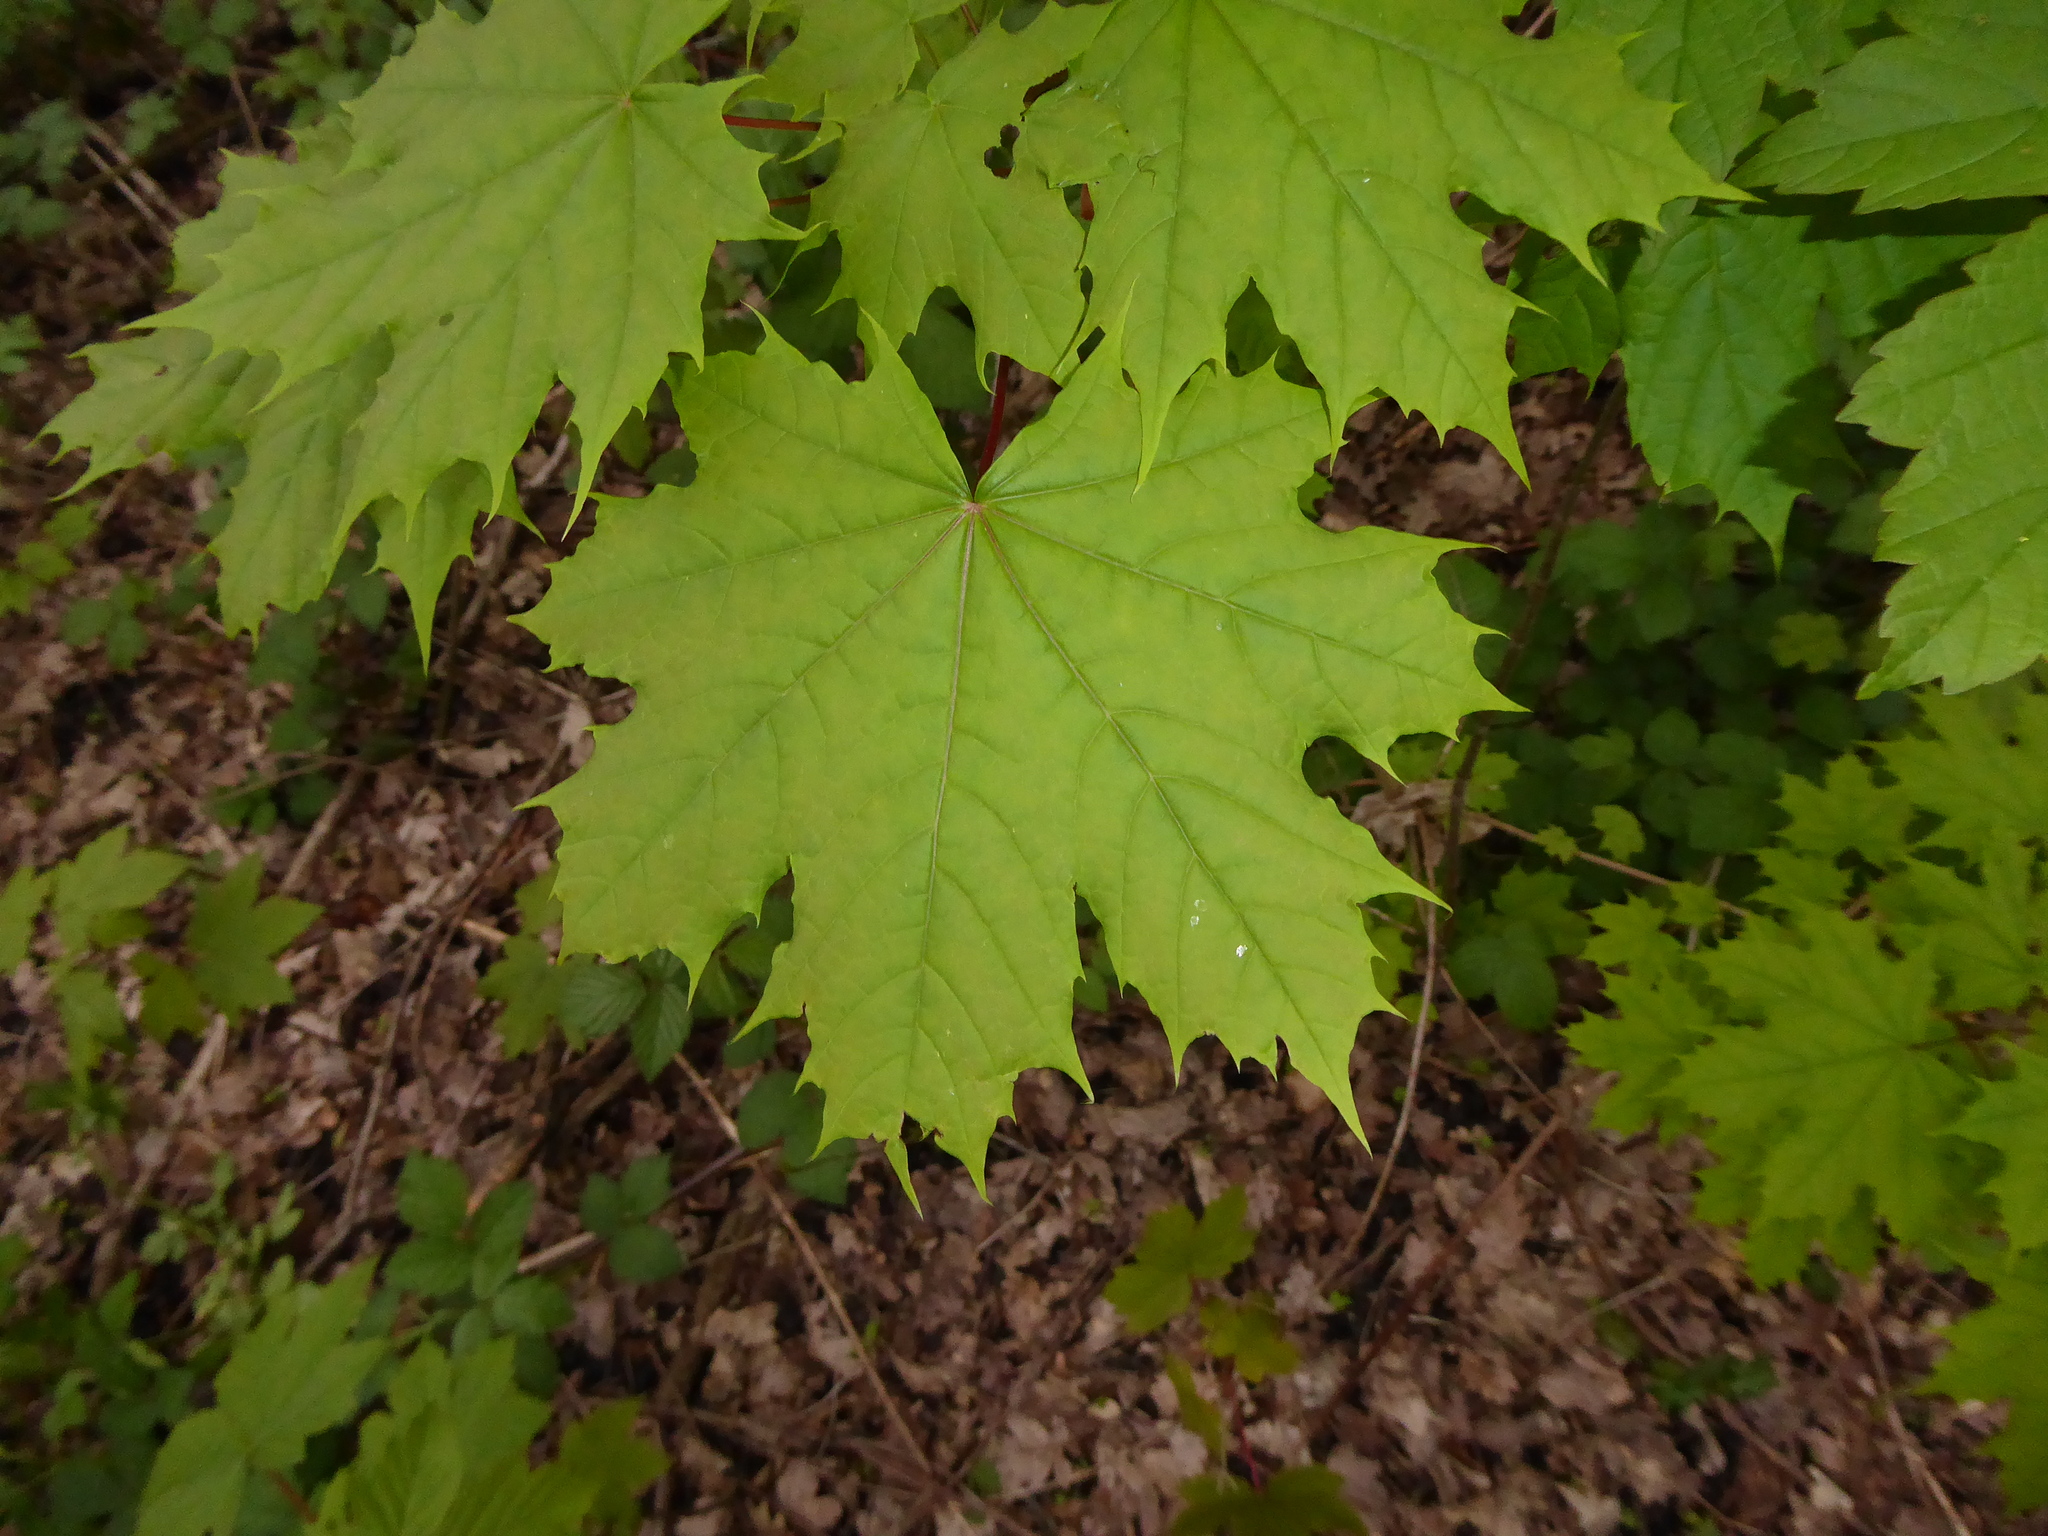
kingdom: Plantae
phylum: Tracheophyta
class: Magnoliopsida
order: Sapindales
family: Sapindaceae
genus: Acer
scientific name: Acer platanoides
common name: Norway maple
